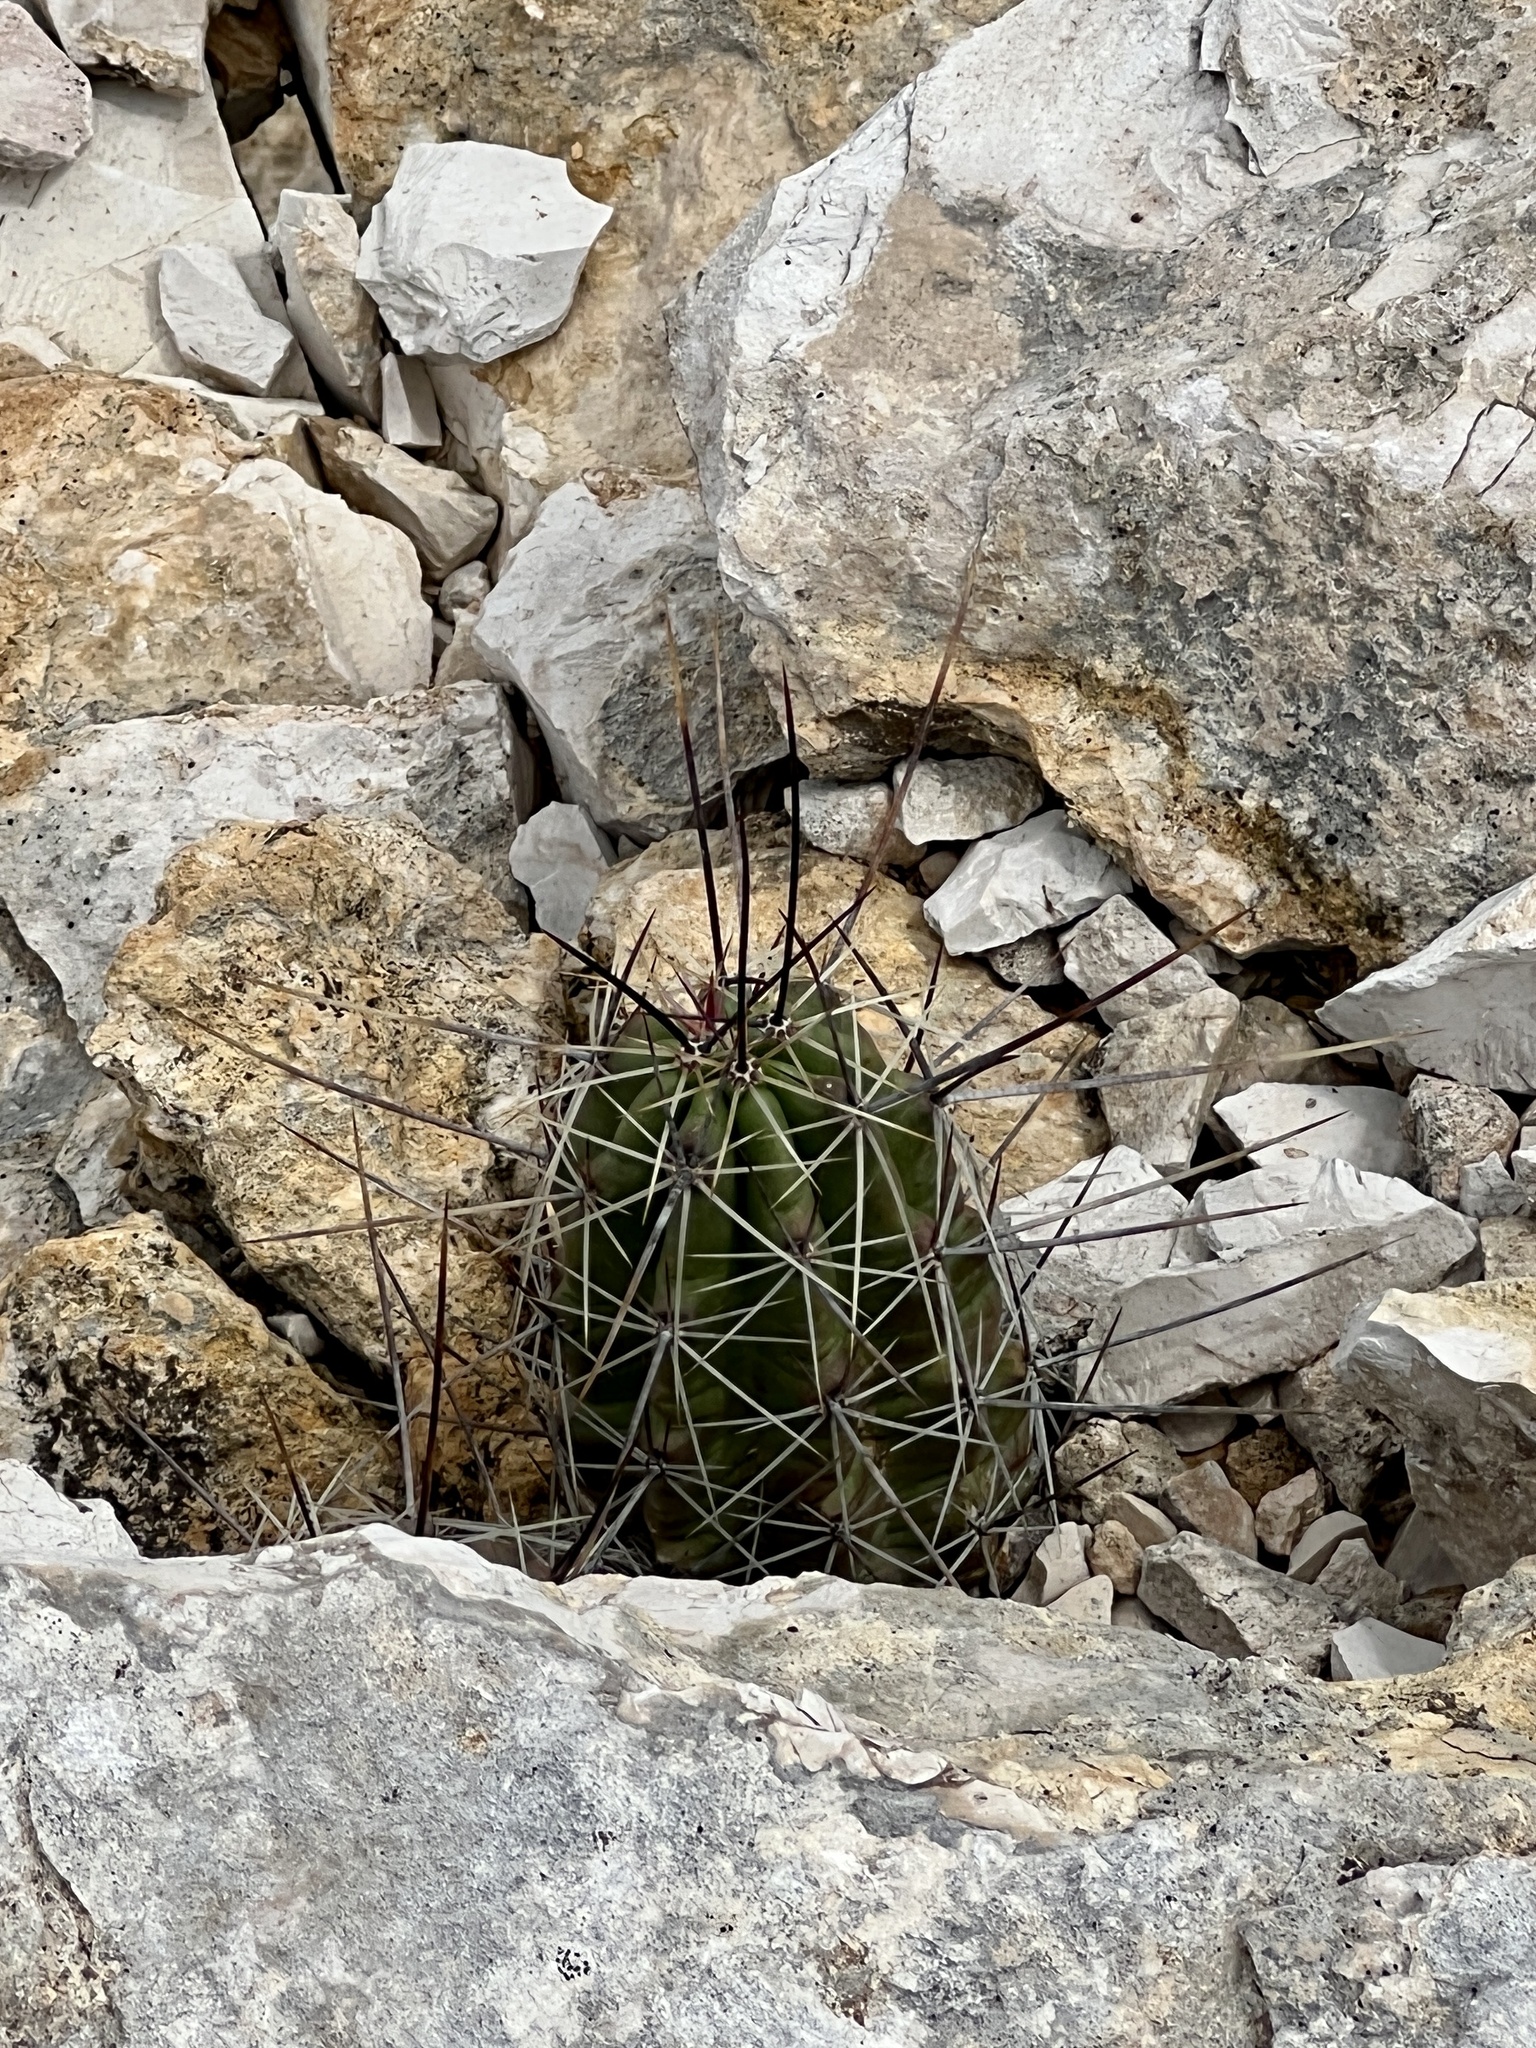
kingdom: Plantae
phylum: Tracheophyta
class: Magnoliopsida
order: Caryophyllales
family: Cactaceae
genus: Echinocereus
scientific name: Echinocereus enneacanthus
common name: Pitaya
